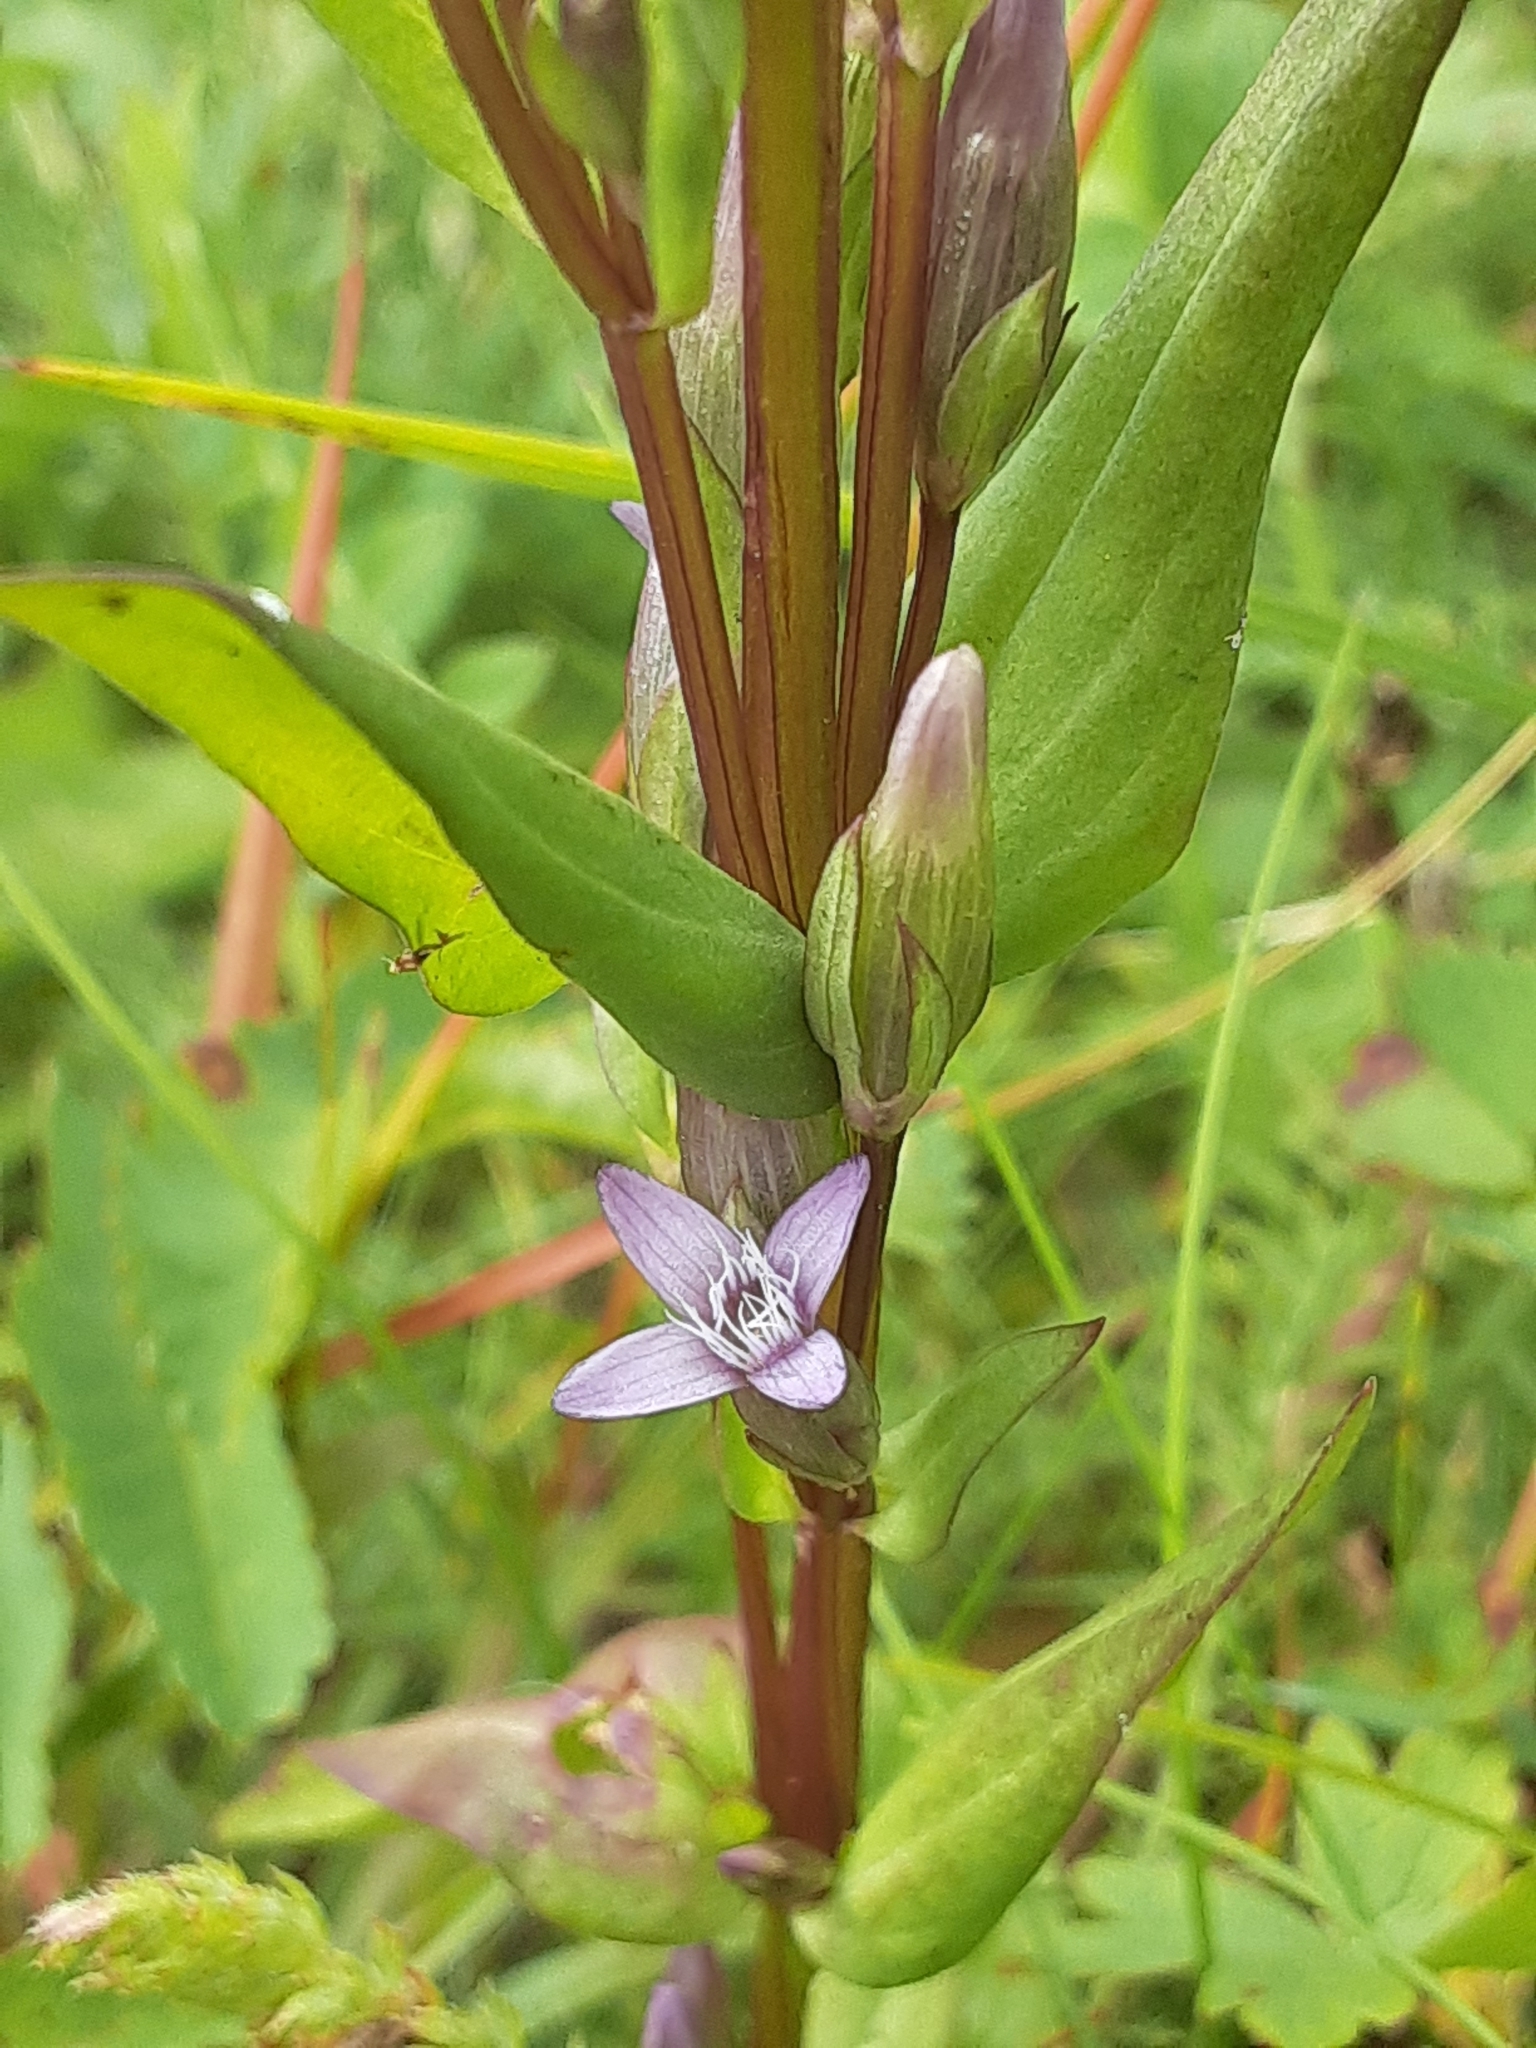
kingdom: Plantae
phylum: Tracheophyta
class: Magnoliopsida
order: Gentianales
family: Gentianaceae
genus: Gentianella
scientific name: Gentianella amarella
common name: Autumn gentian
